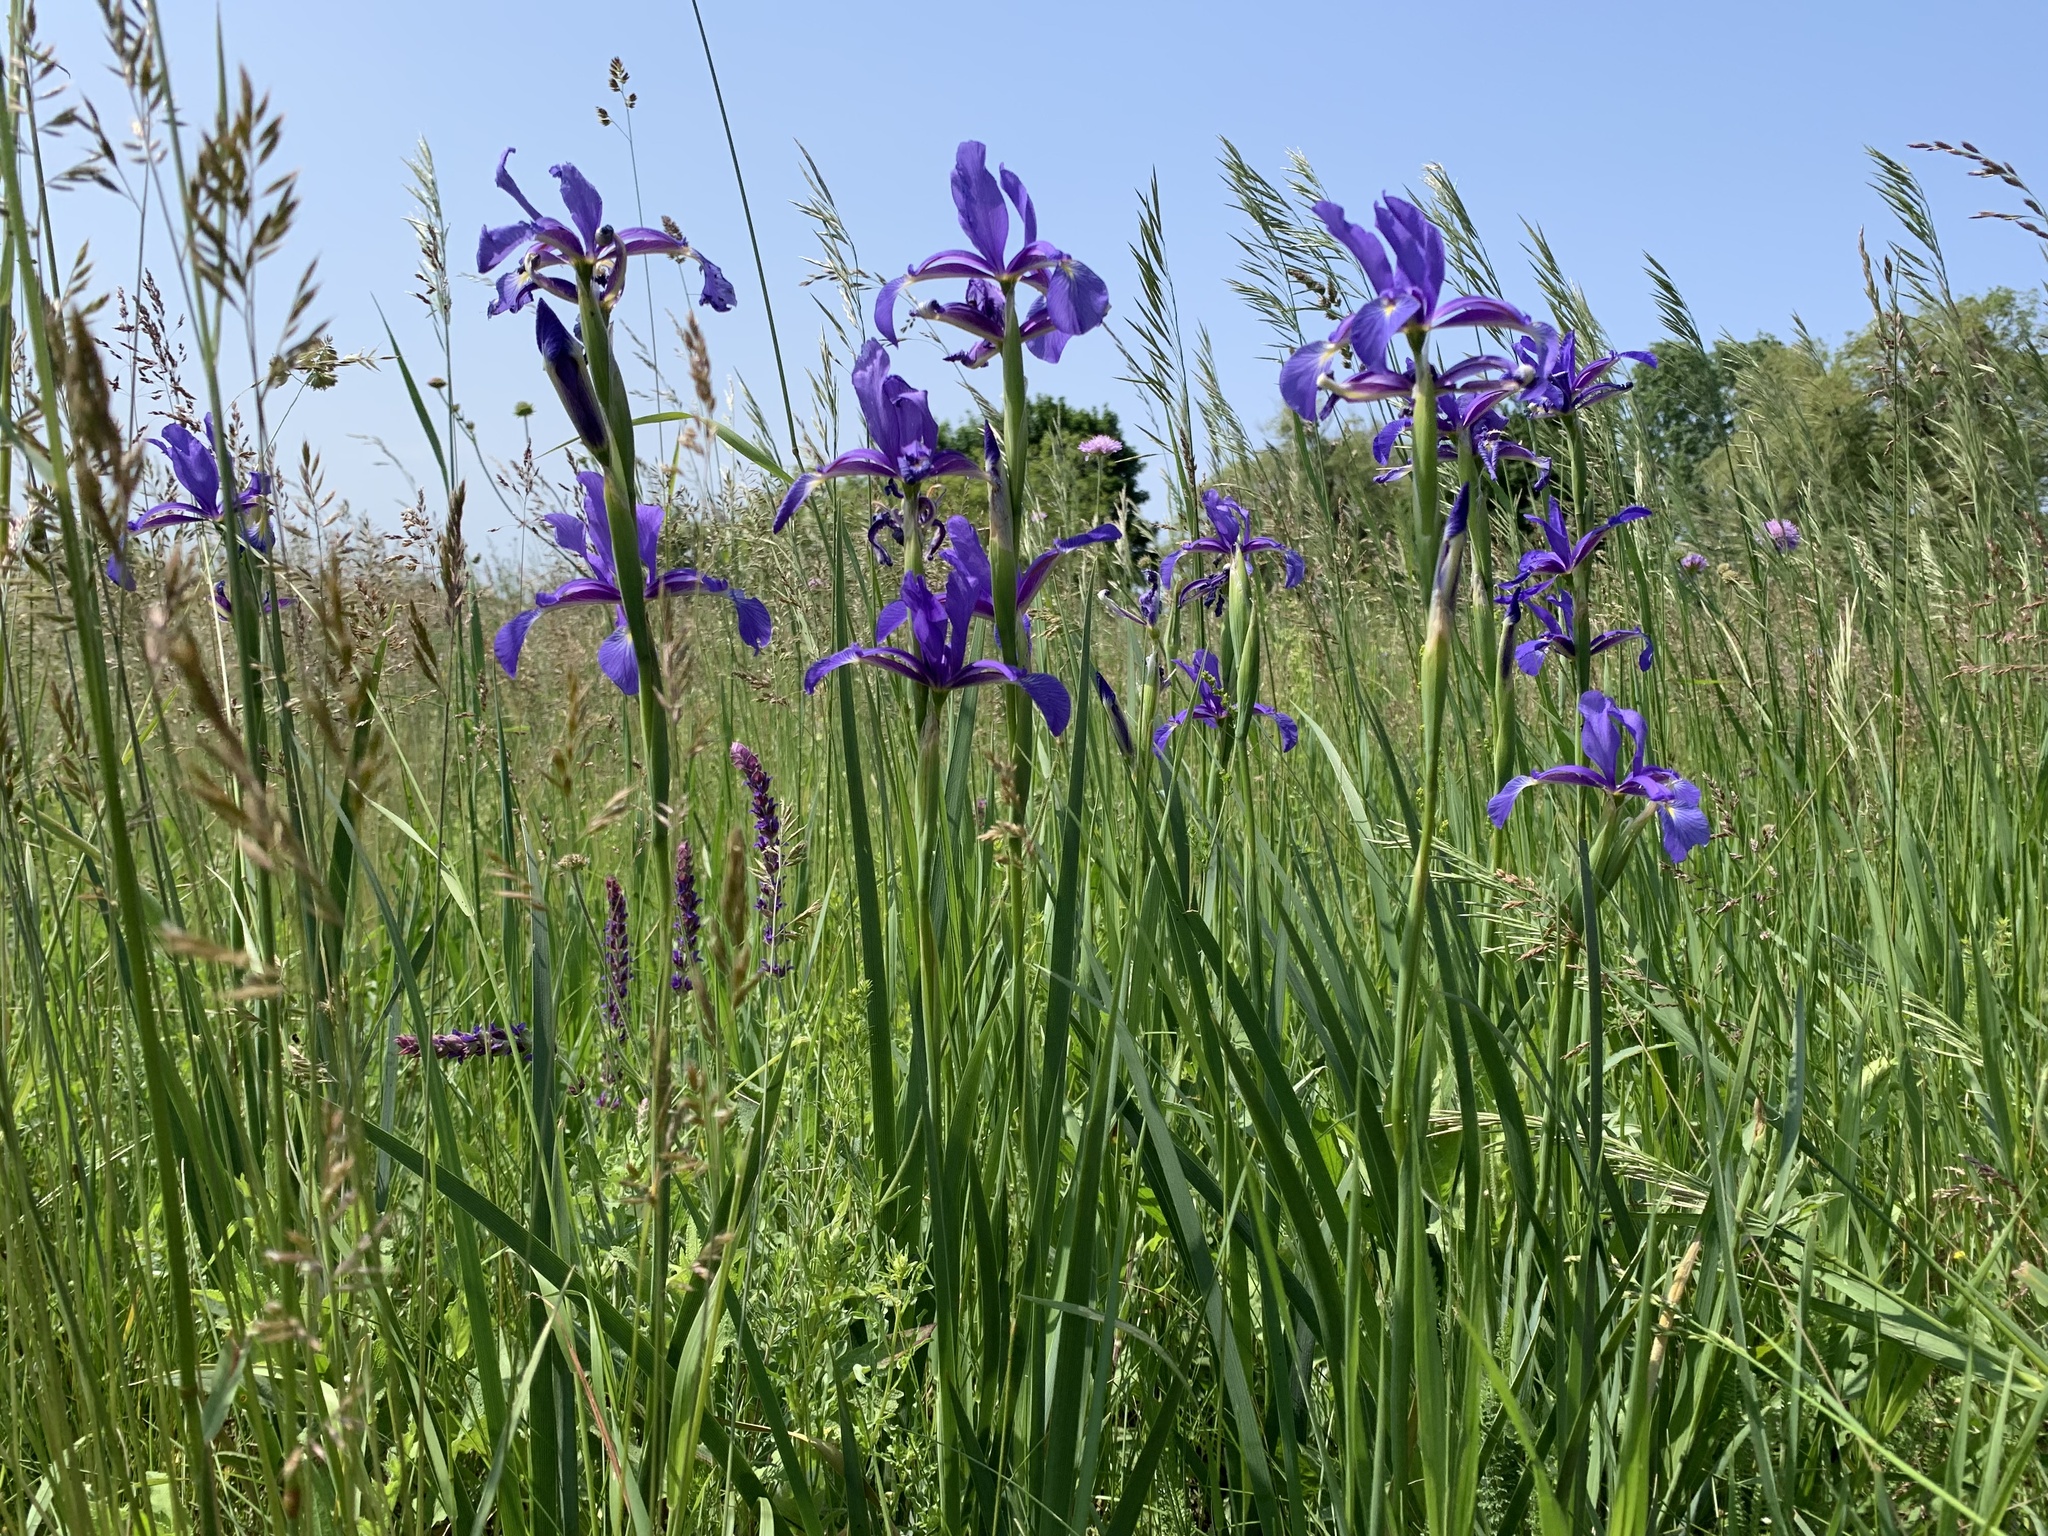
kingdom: Plantae
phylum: Tracheophyta
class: Liliopsida
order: Asparagales
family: Iridaceae
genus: Iris
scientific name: Iris spuria
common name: Blue iris
